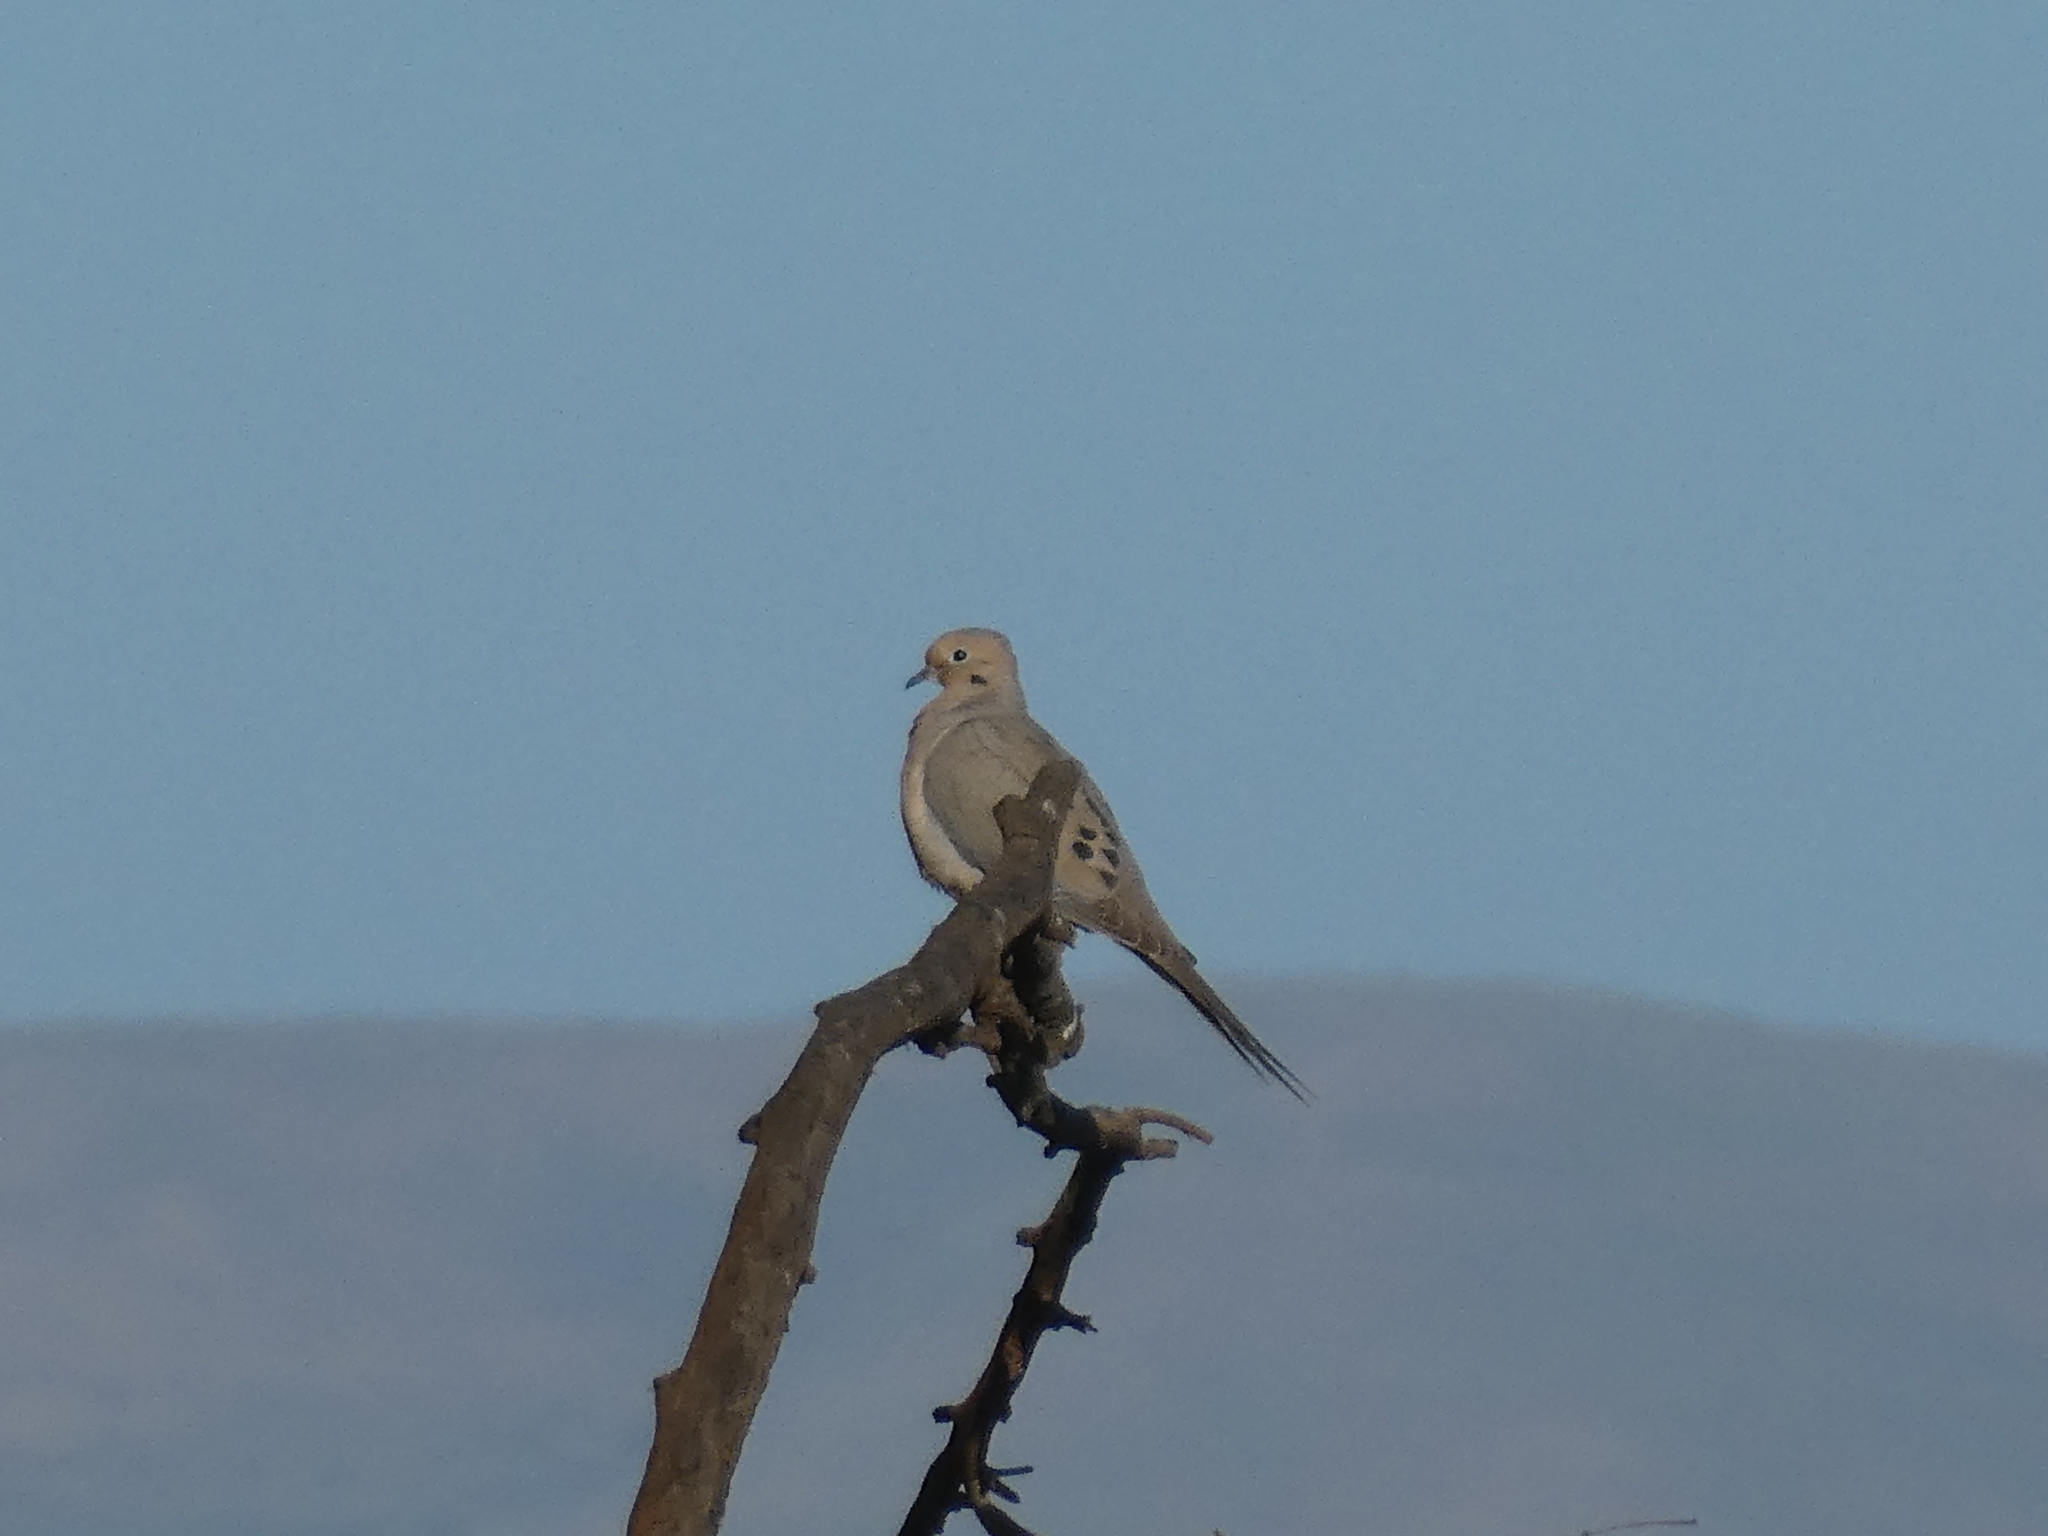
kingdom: Animalia
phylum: Chordata
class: Aves
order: Columbiformes
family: Columbidae
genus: Zenaida
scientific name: Zenaida macroura
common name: Mourning dove
